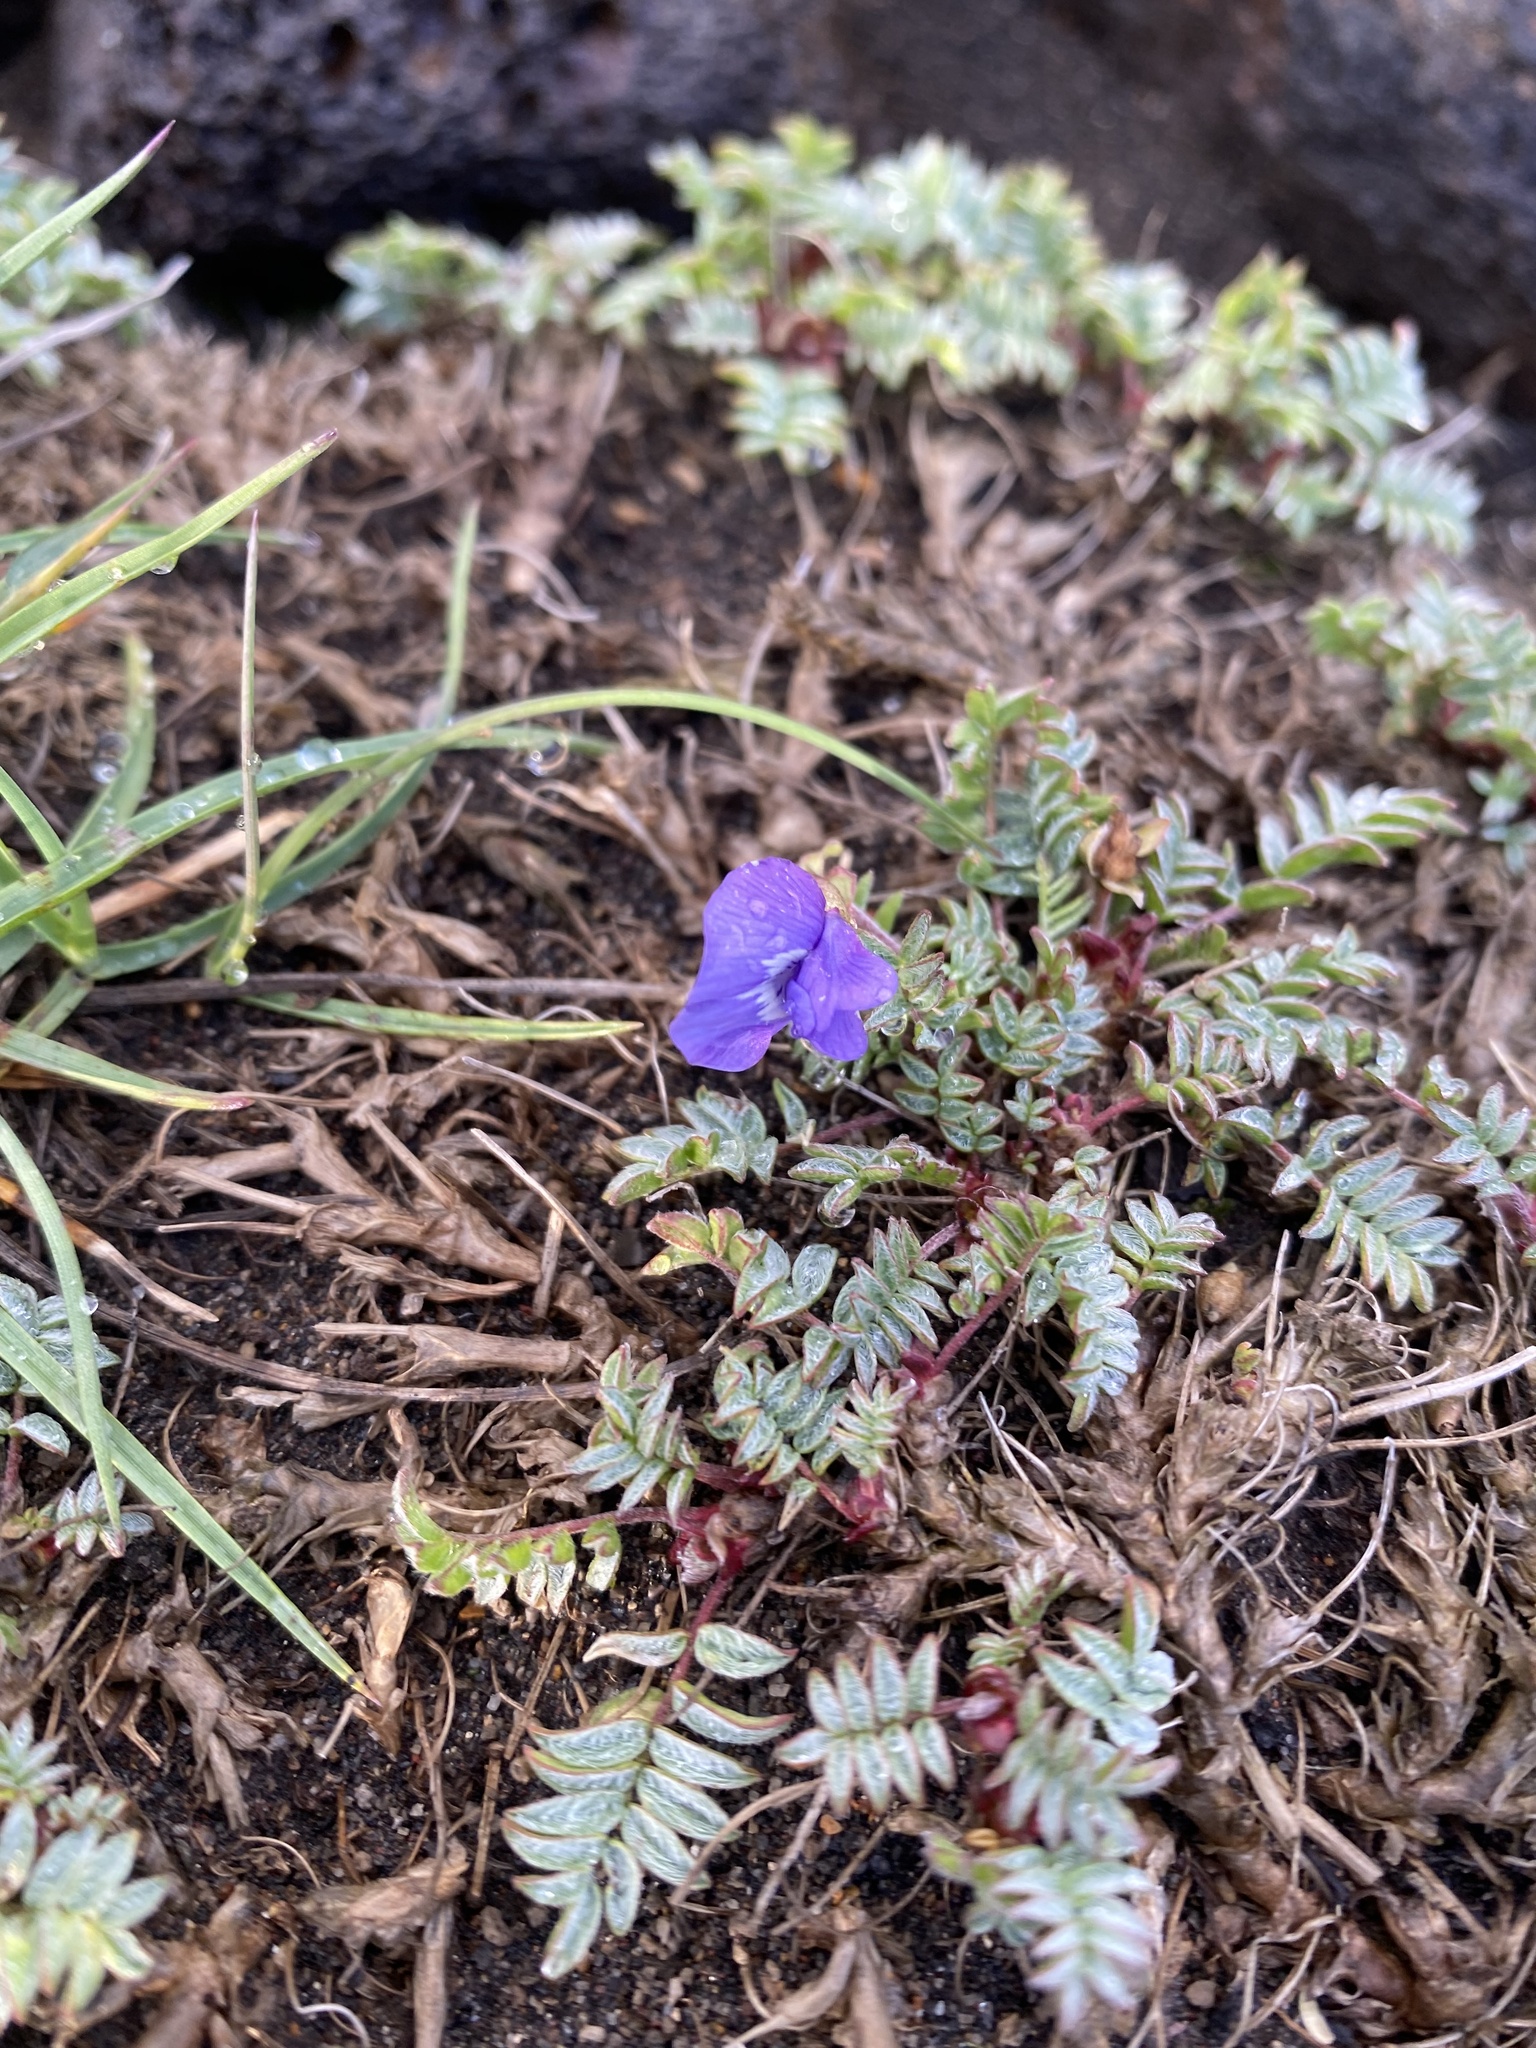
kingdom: Plantae
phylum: Tracheophyta
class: Magnoliopsida
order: Fabales
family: Fabaceae
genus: Oxytropis
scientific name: Oxytropis revoluta
